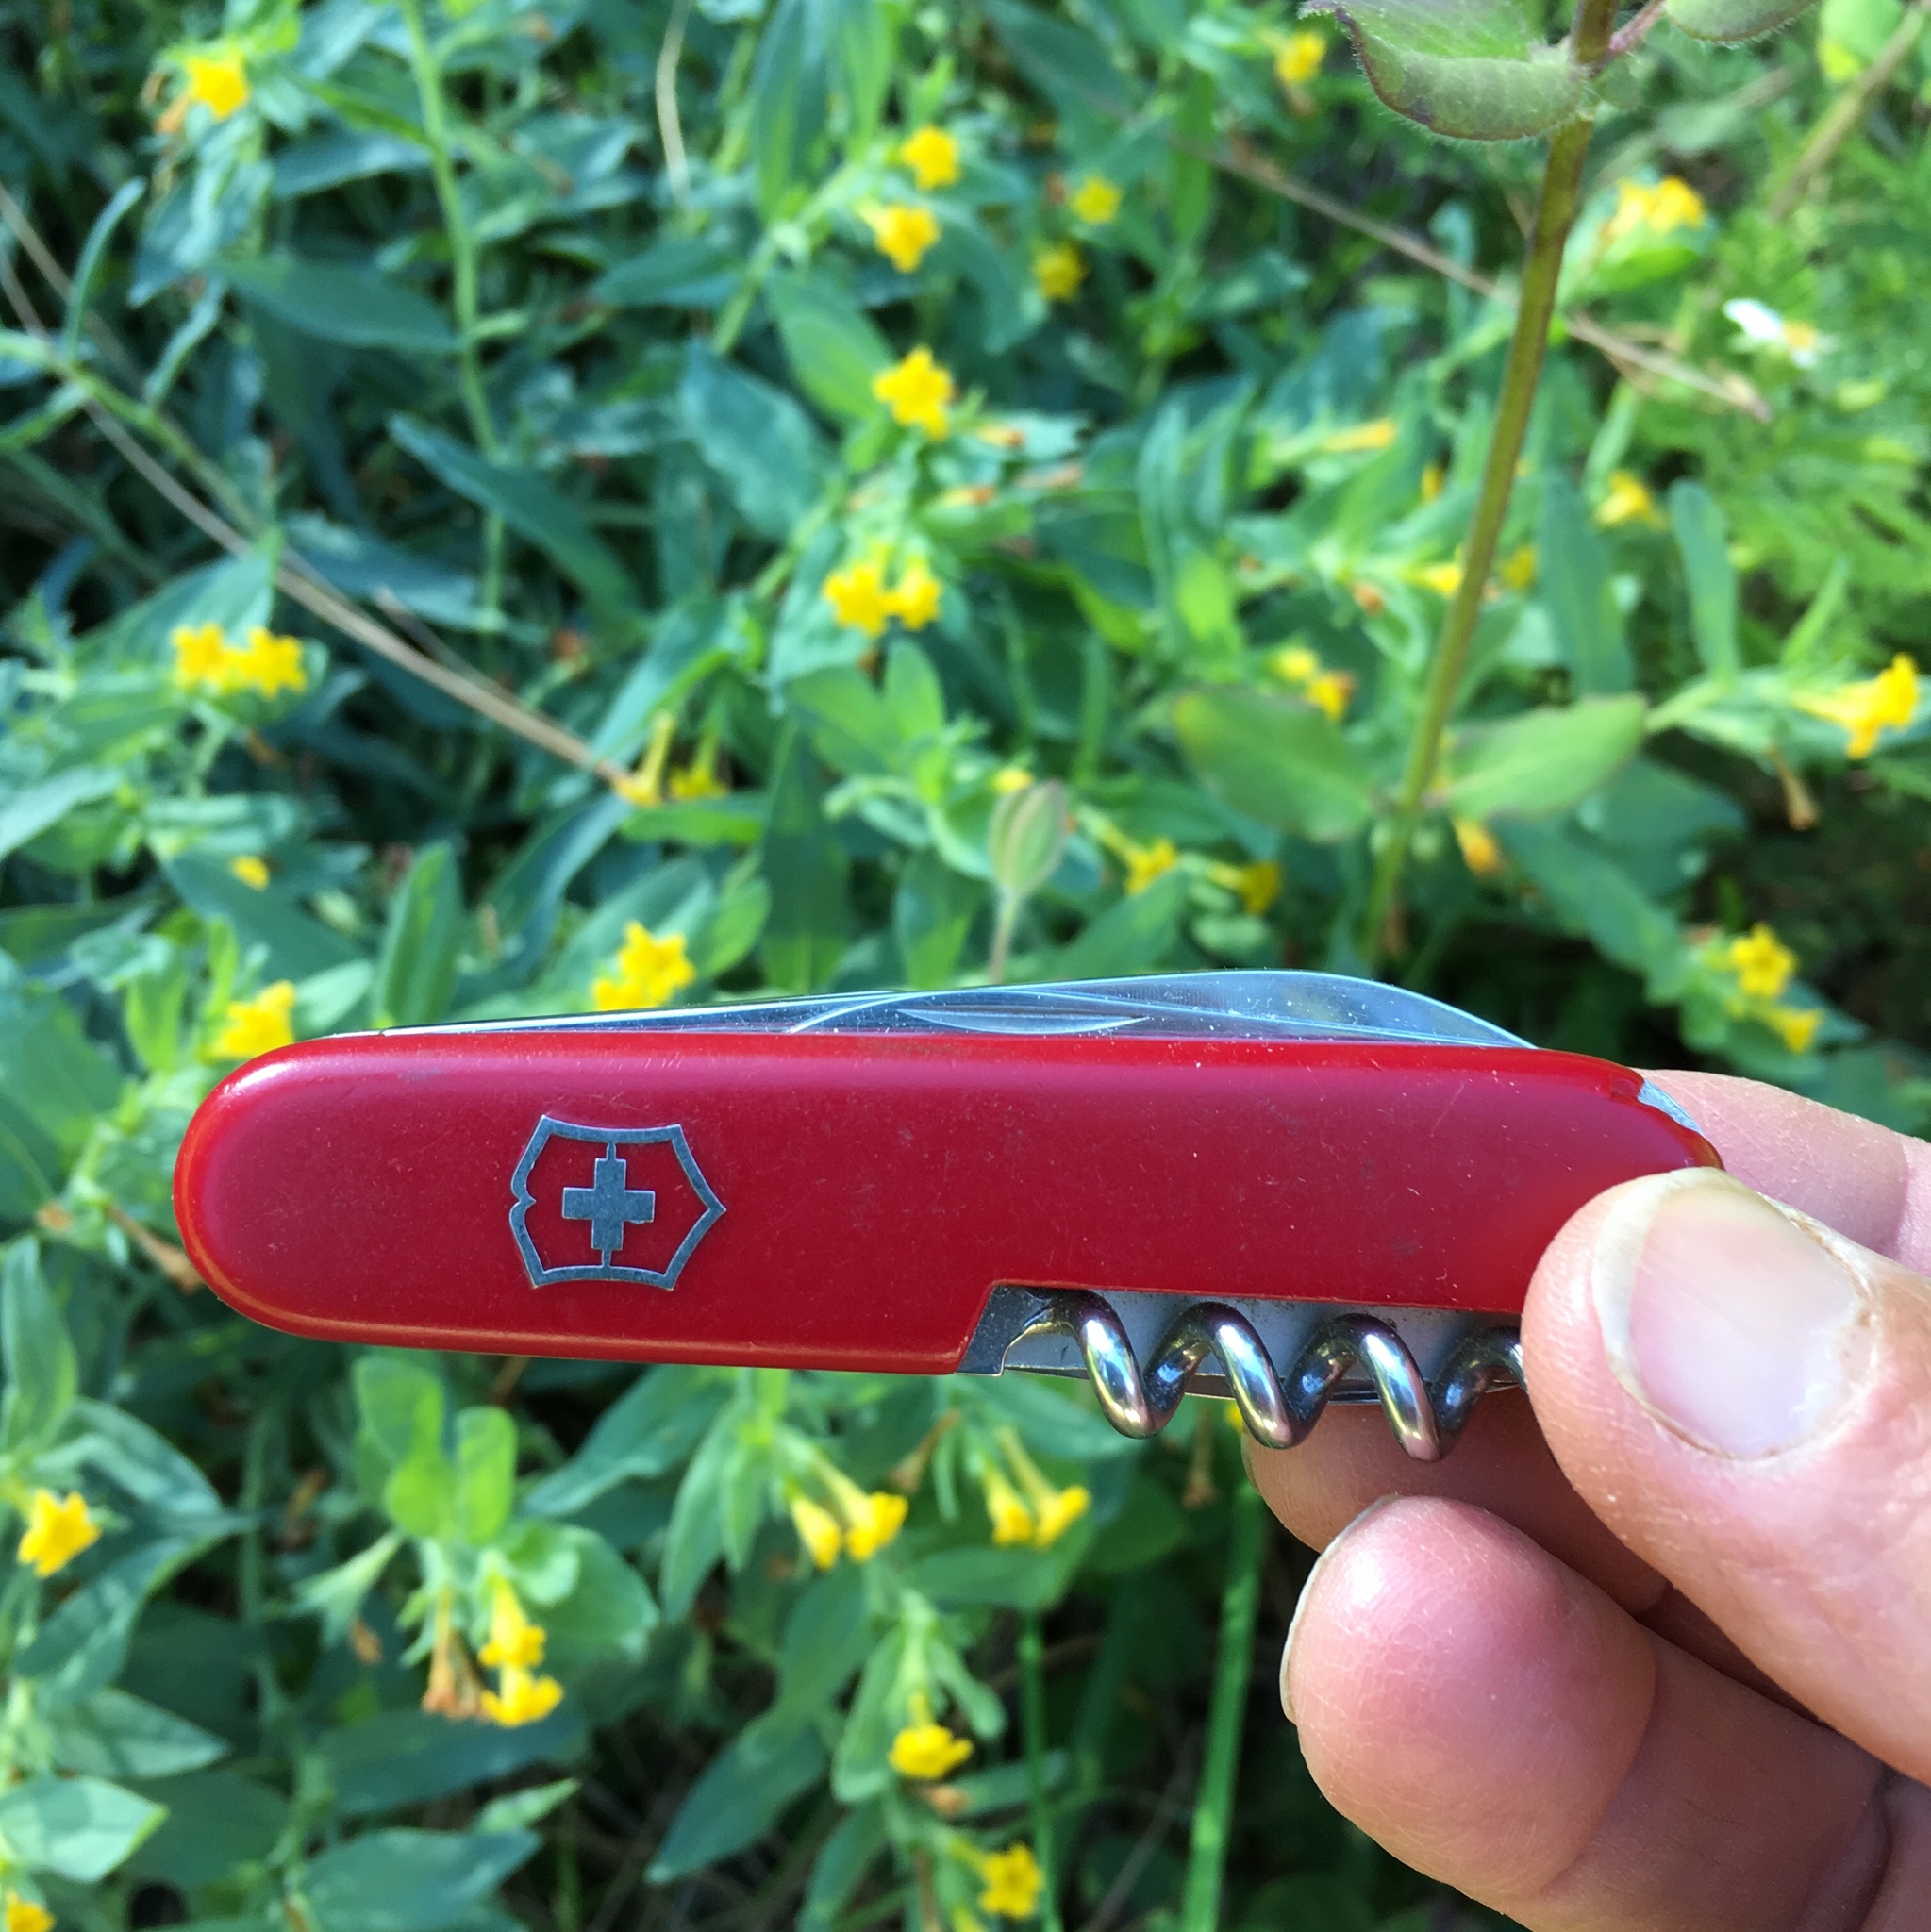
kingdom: Plantae
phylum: Tracheophyta
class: Magnoliopsida
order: Boraginales
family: Boraginaceae
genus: Lithospermum
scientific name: Lithospermum californicum
